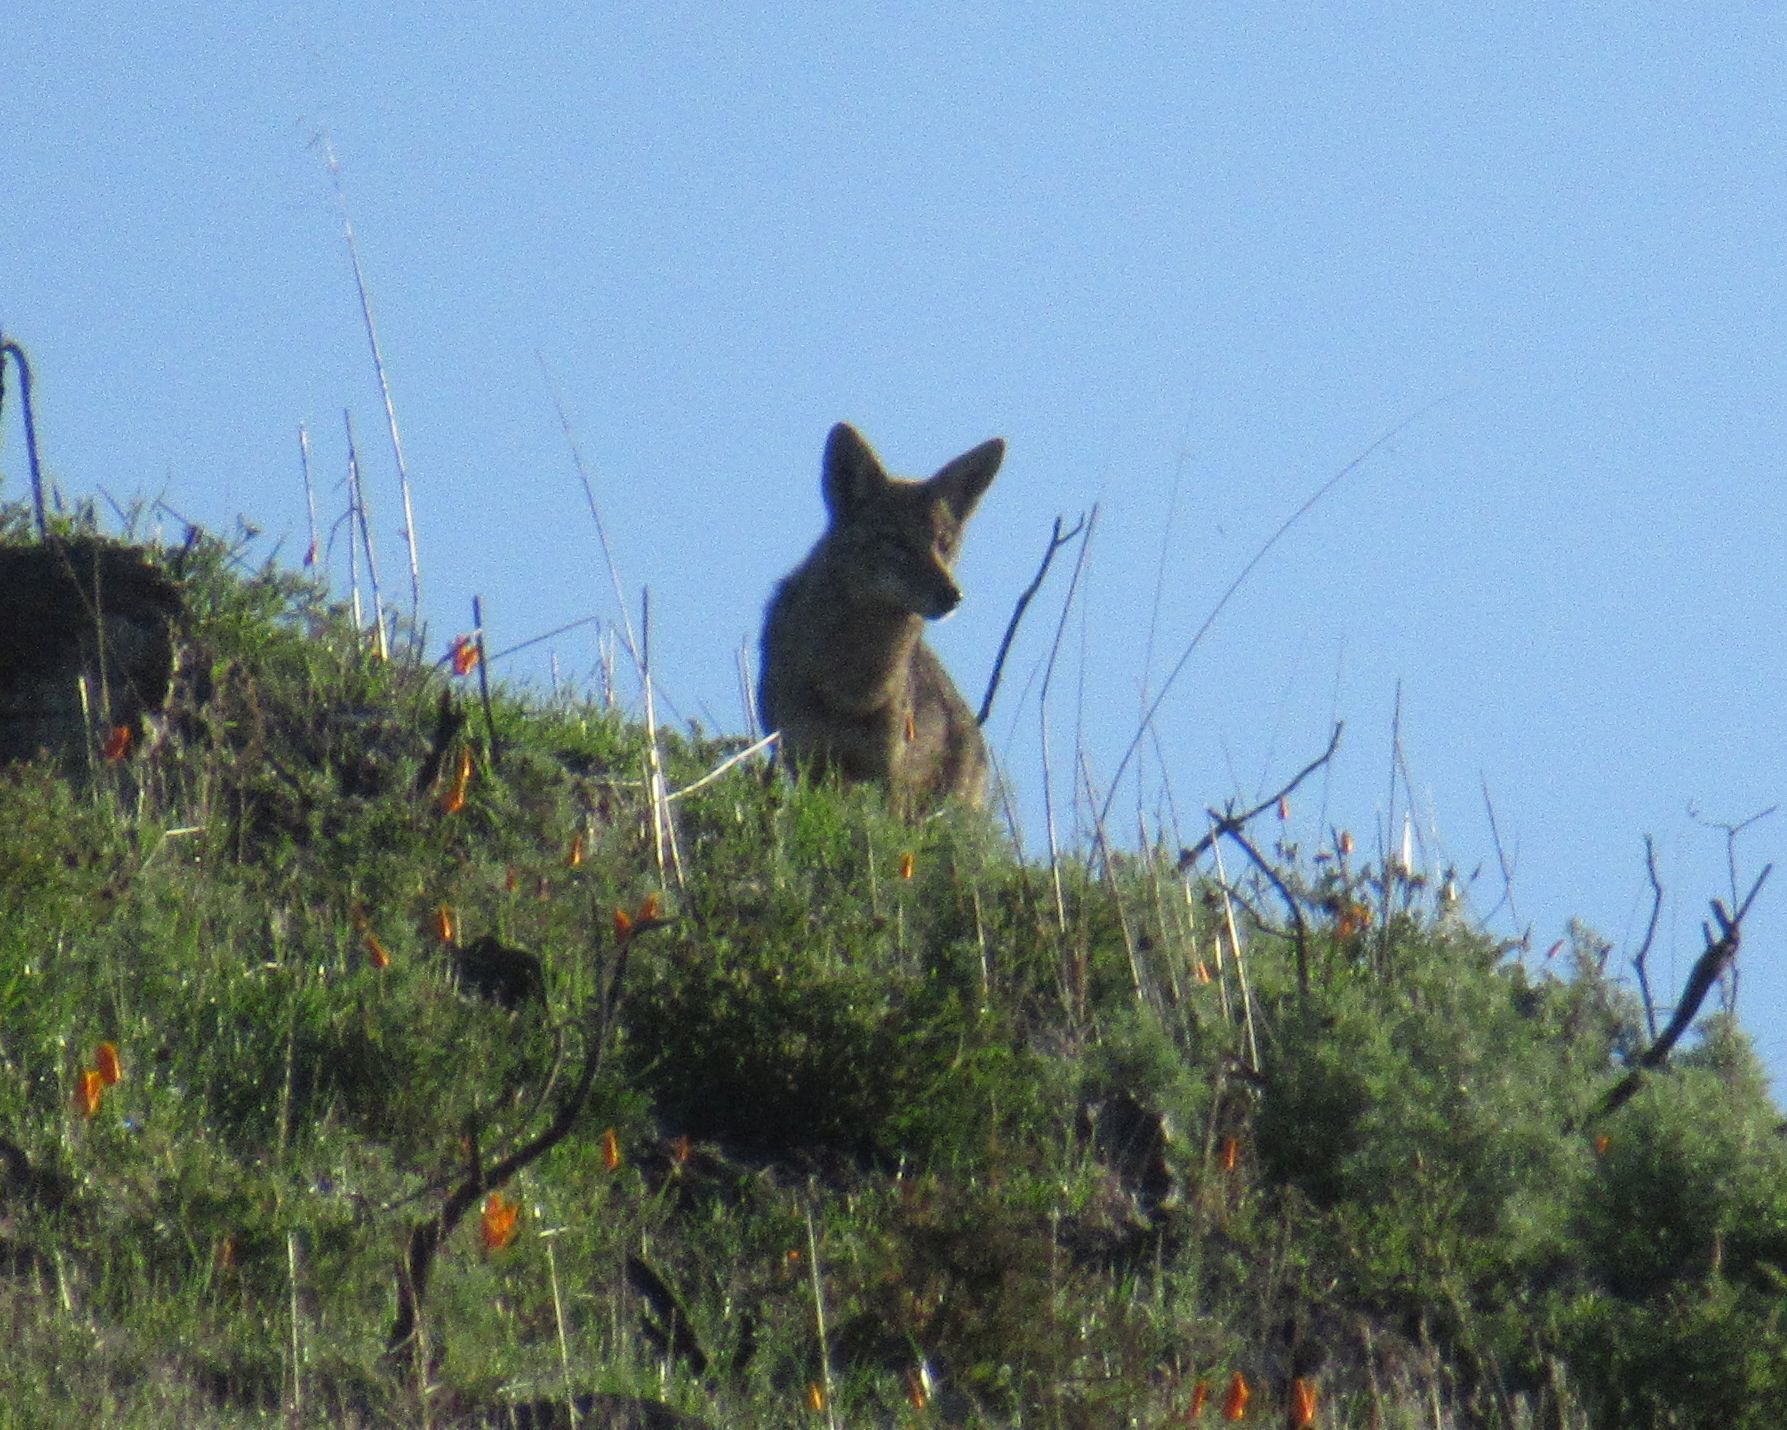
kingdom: Animalia
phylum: Chordata
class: Mammalia
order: Carnivora
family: Canidae
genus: Canis
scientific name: Canis latrans
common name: Coyote
